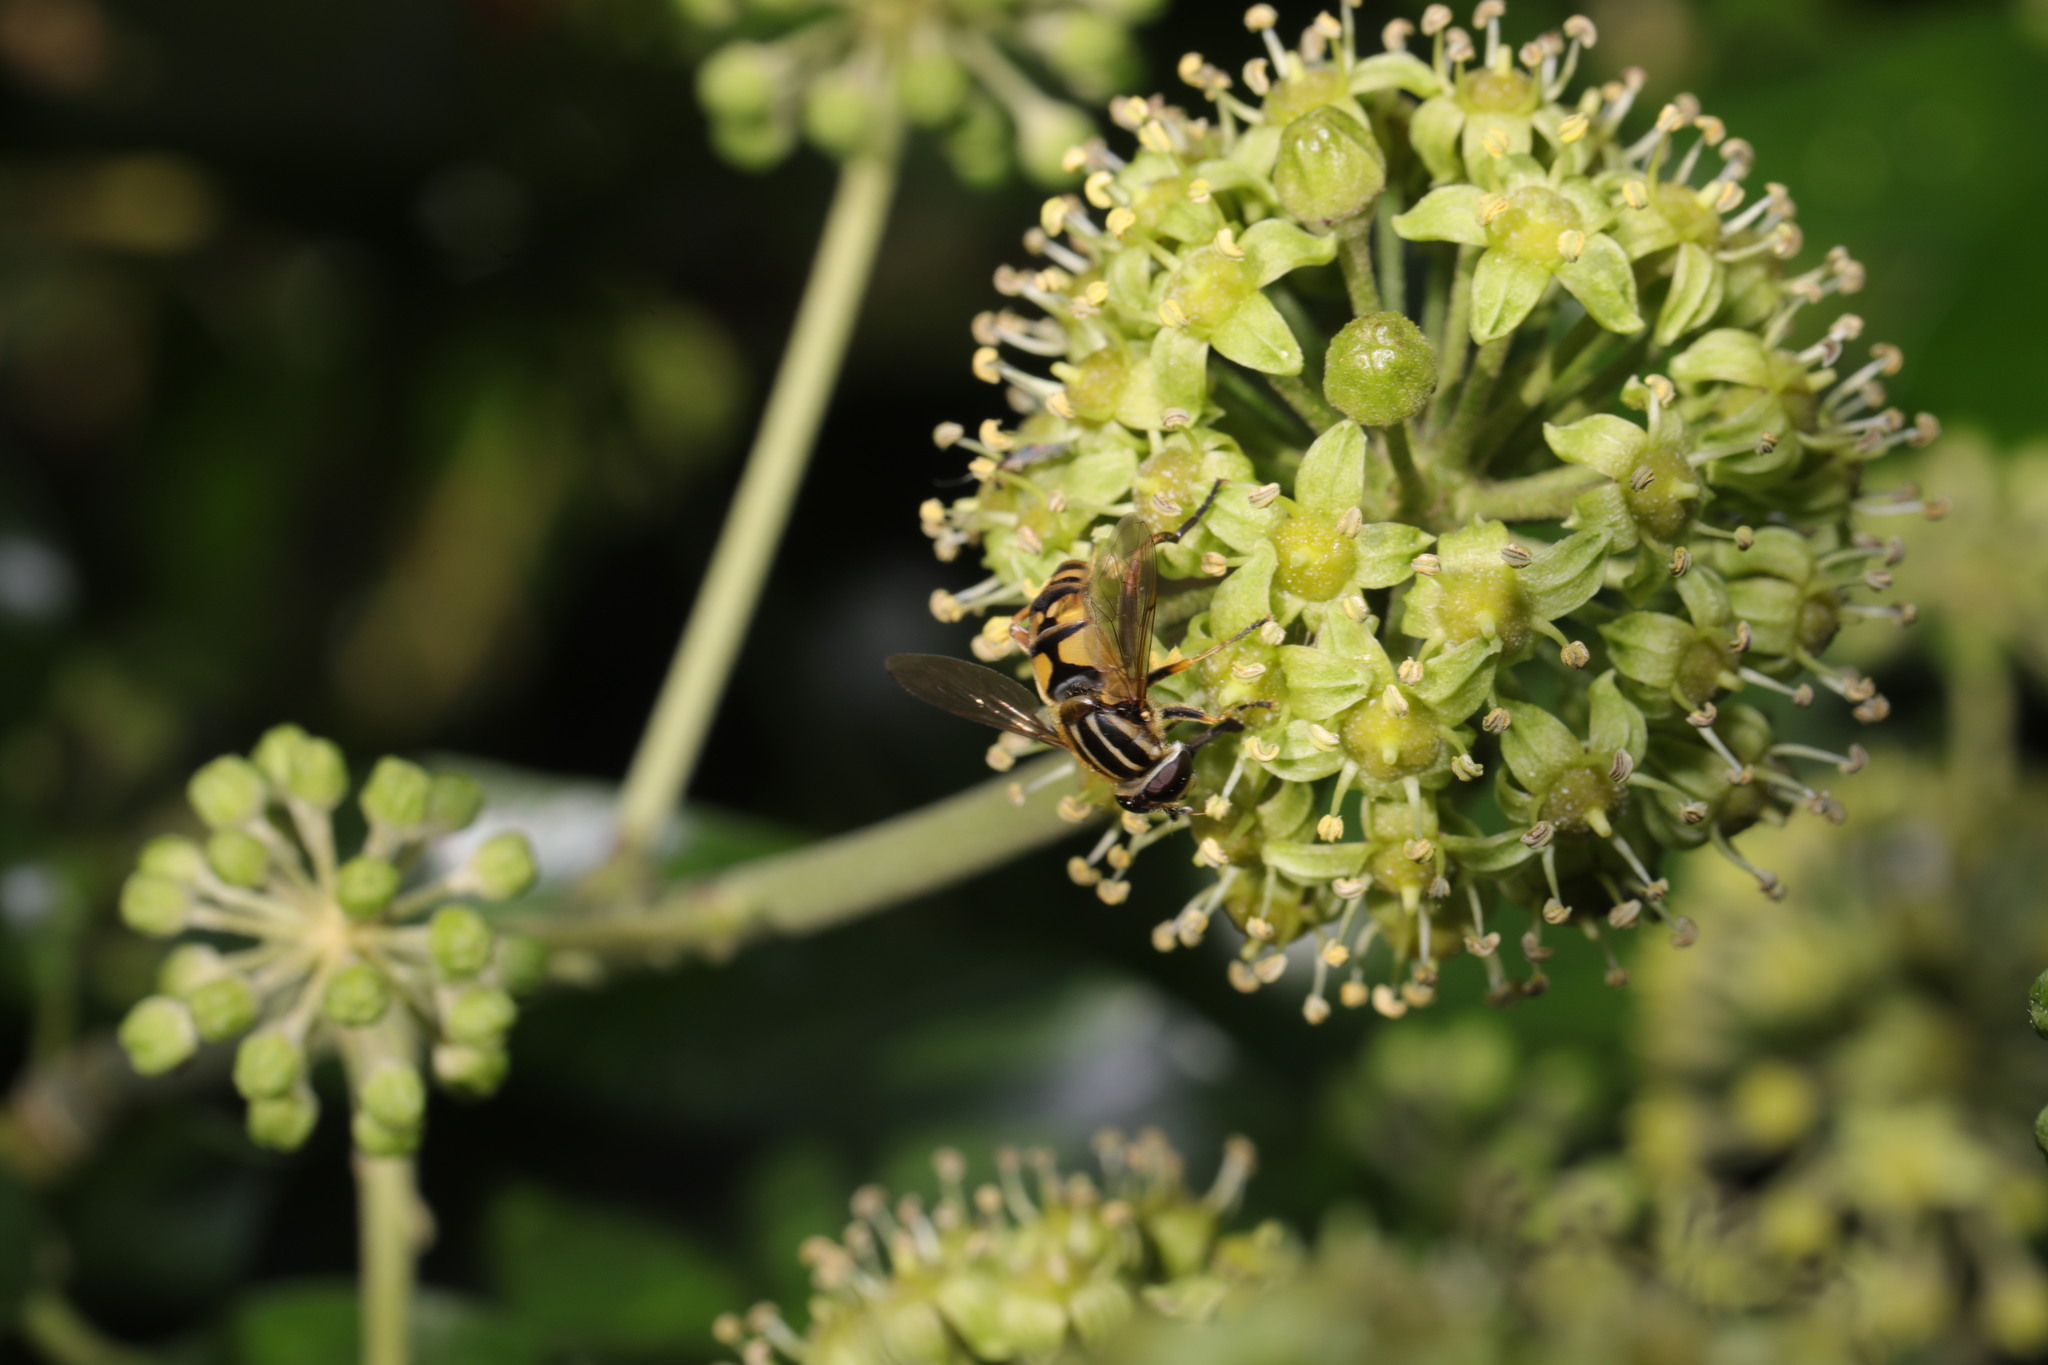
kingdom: Animalia
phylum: Arthropoda
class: Insecta
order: Diptera
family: Syrphidae
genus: Helophilus
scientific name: Helophilus pendulus
